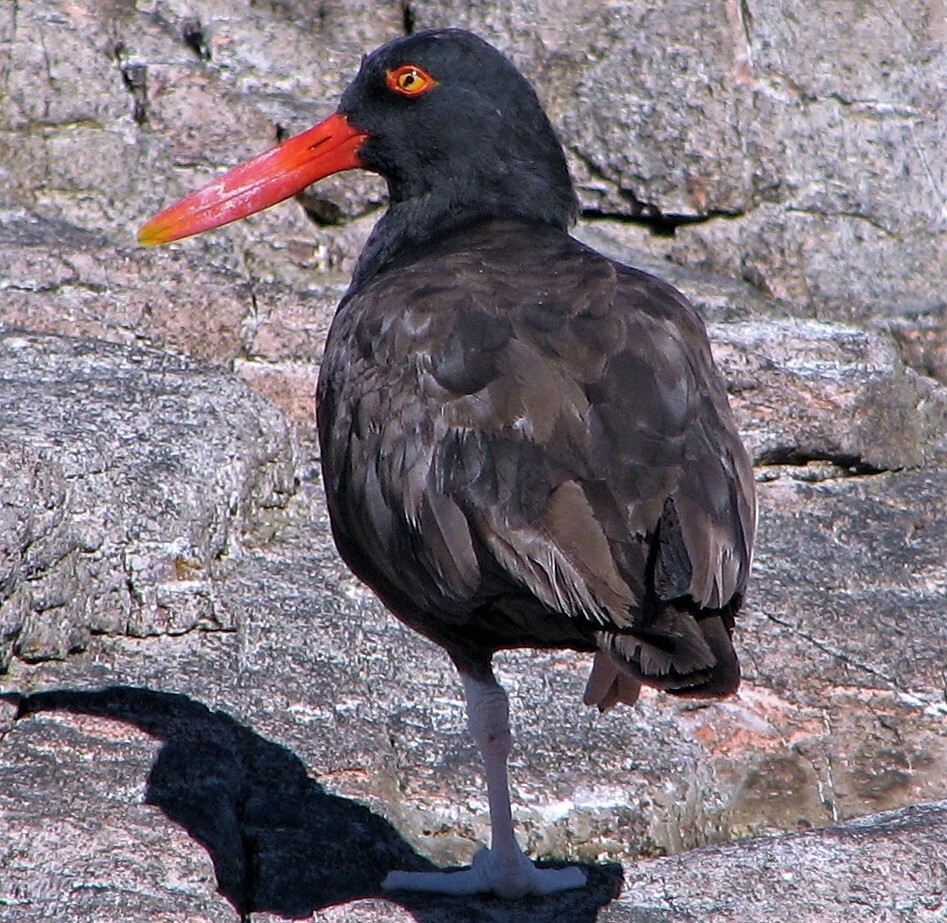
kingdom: Animalia
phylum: Chordata
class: Aves
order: Charadriiformes
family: Haematopodidae
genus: Haematopus
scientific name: Haematopus ater
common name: Blackish oystercatcher
